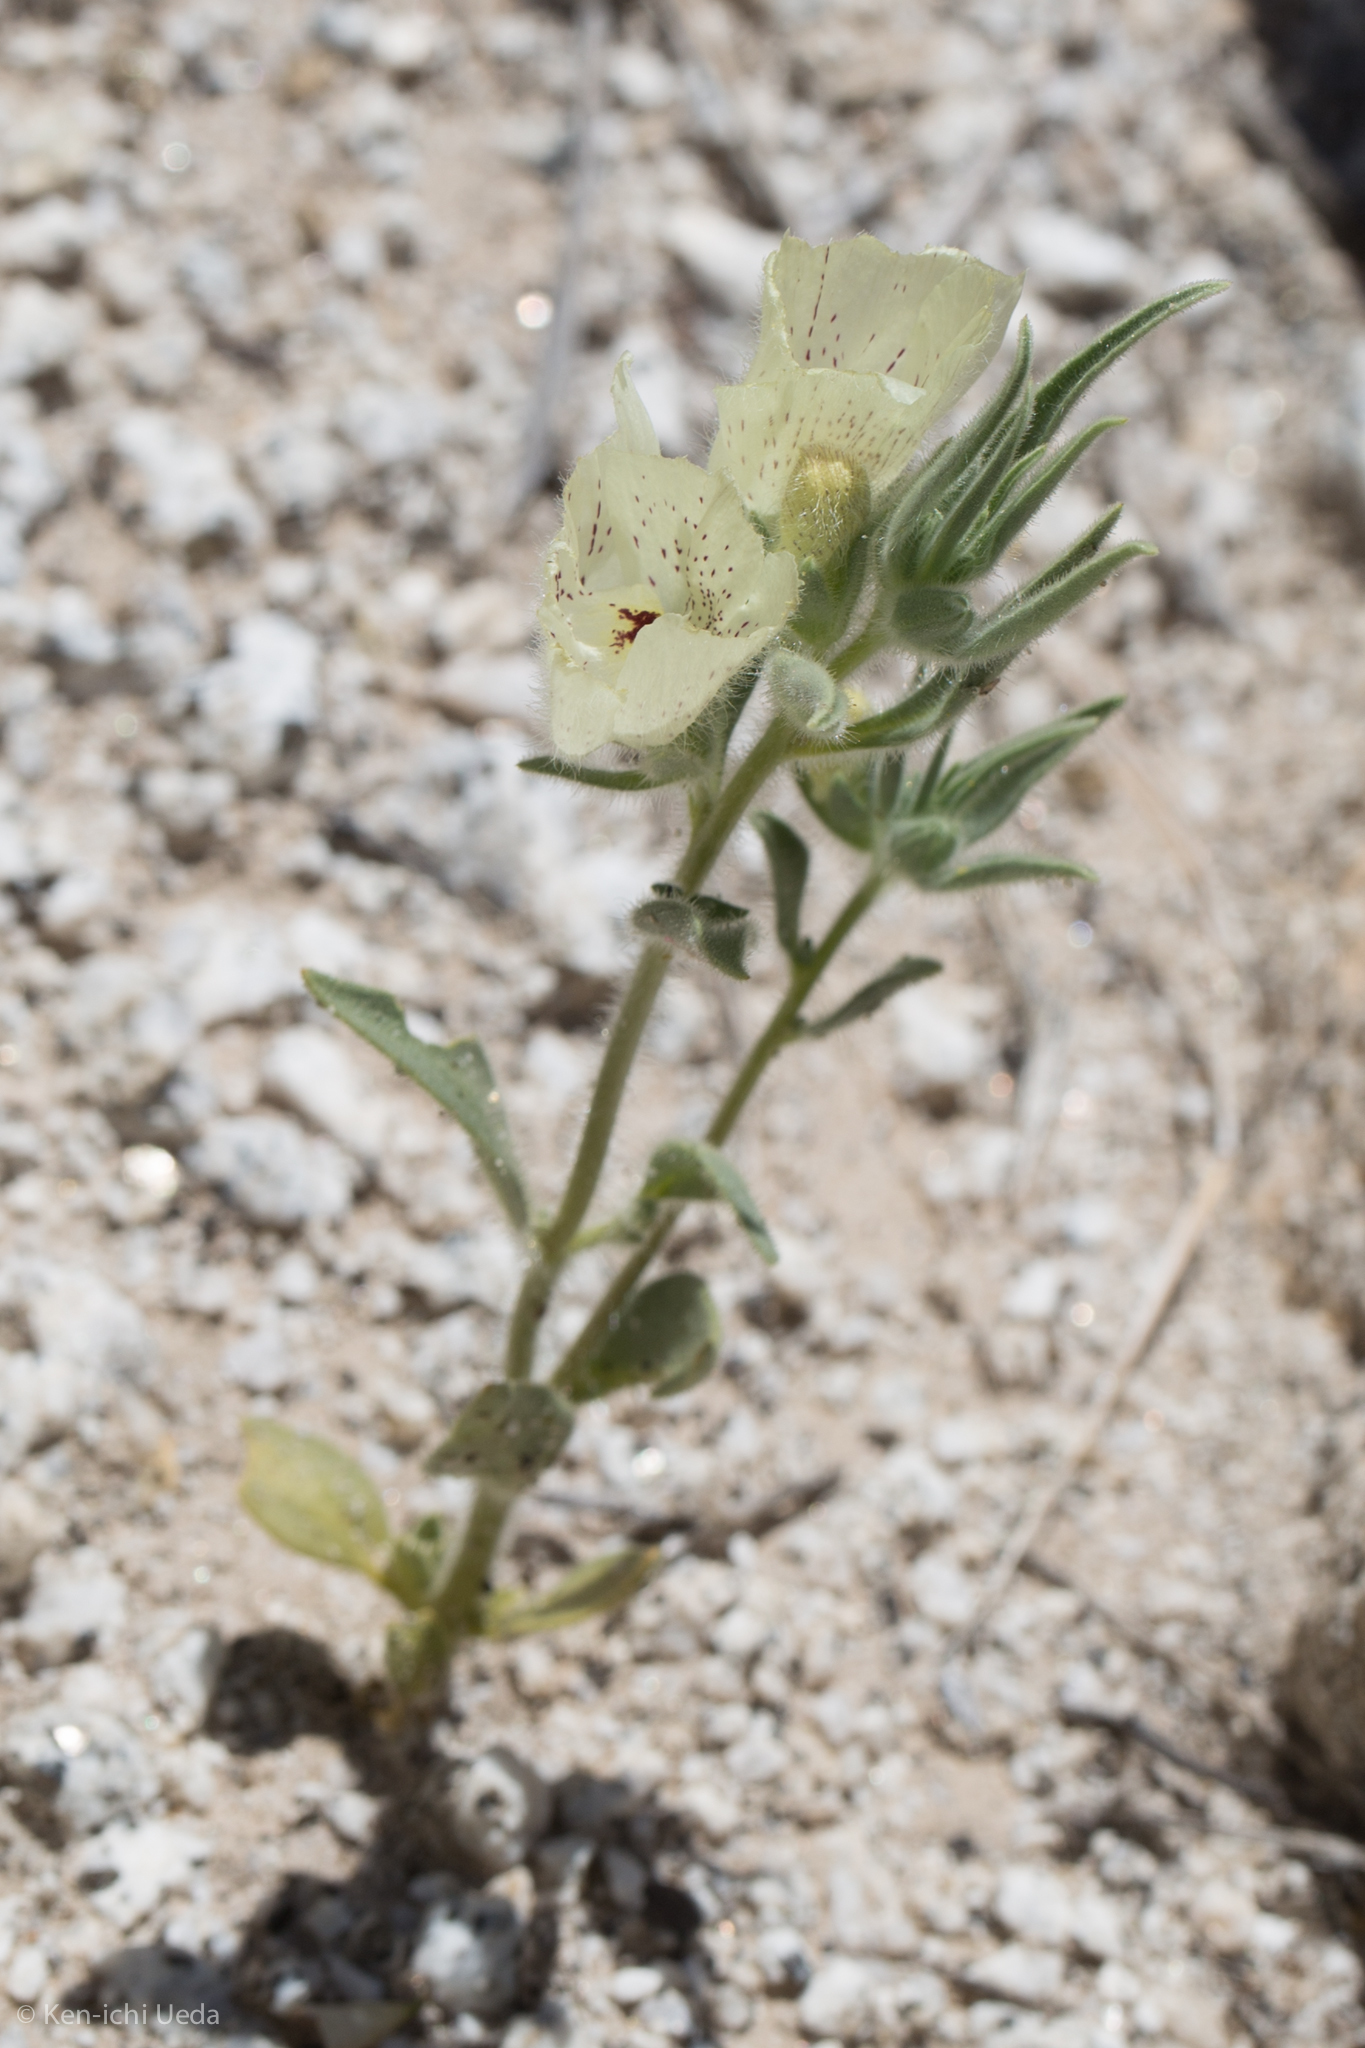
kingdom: Plantae
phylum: Tracheophyta
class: Magnoliopsida
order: Lamiales
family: Plantaginaceae
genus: Mohavea
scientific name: Mohavea confertiflora
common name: Ghost flower
